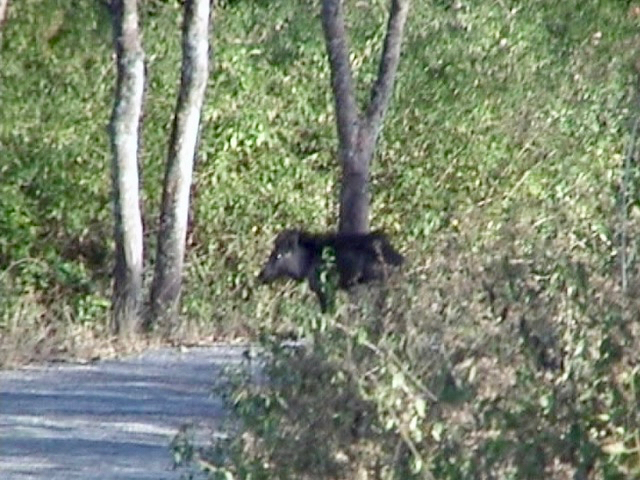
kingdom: Animalia
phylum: Chordata
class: Mammalia
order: Artiodactyla
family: Suidae
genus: Sus
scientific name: Sus scrofa
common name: Wild boar
